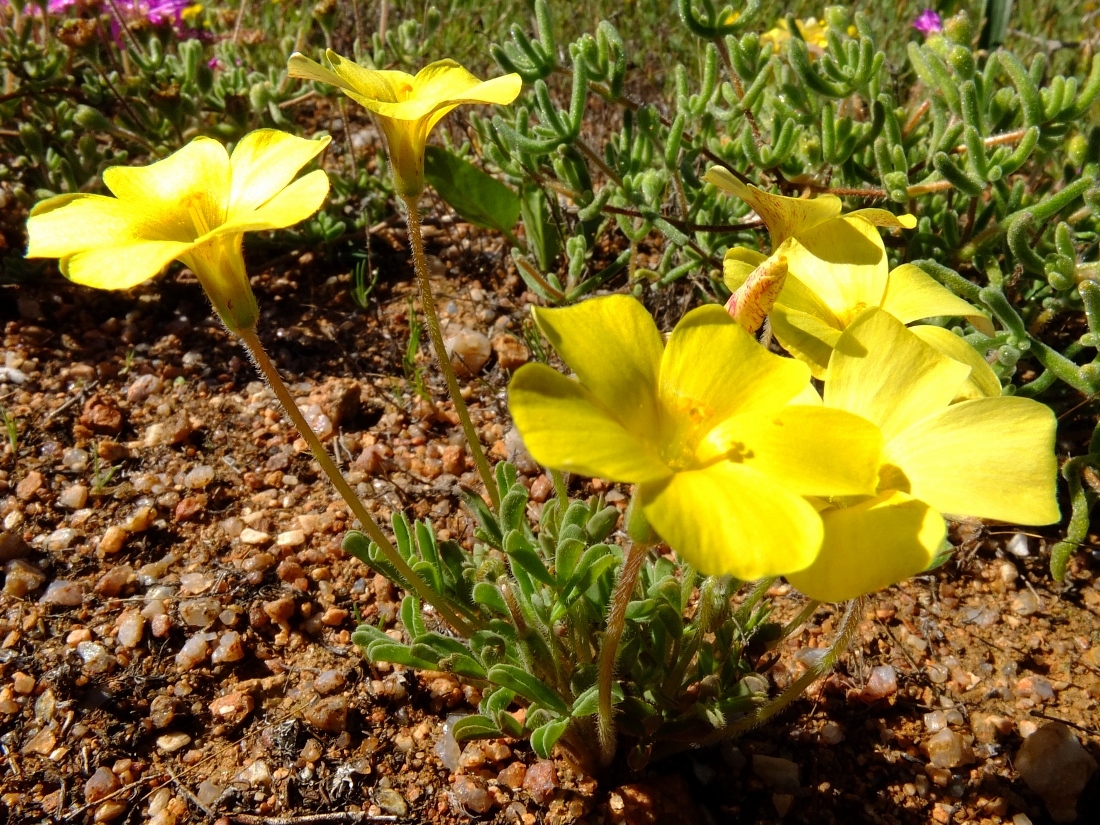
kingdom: Plantae
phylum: Tracheophyta
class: Magnoliopsida
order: Oxalidales
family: Oxalidaceae
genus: Oxalis
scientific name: Oxalis obtusa
